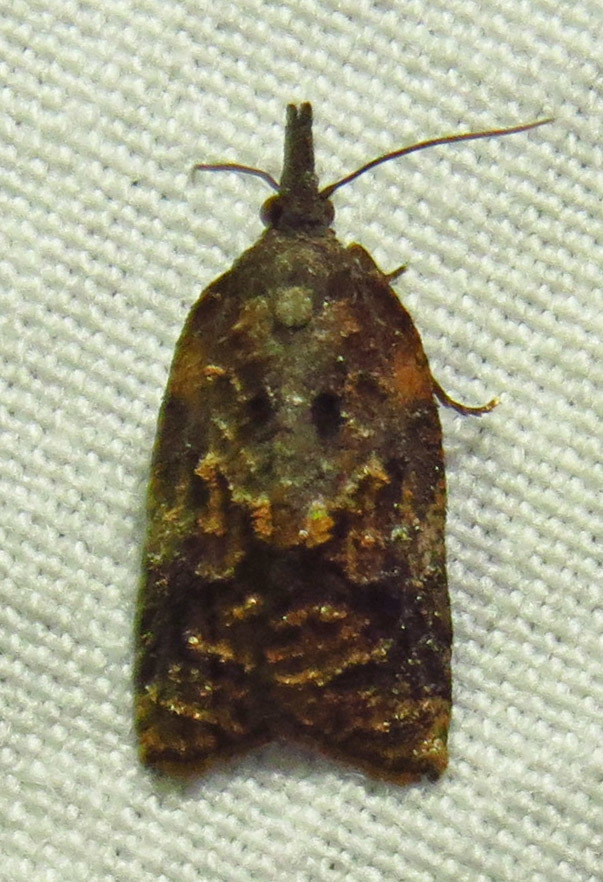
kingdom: Animalia
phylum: Arthropoda
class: Insecta
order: Lepidoptera
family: Tortricidae
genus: Platynota
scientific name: Platynota idaeusalis
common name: Tufted apple bud moth
